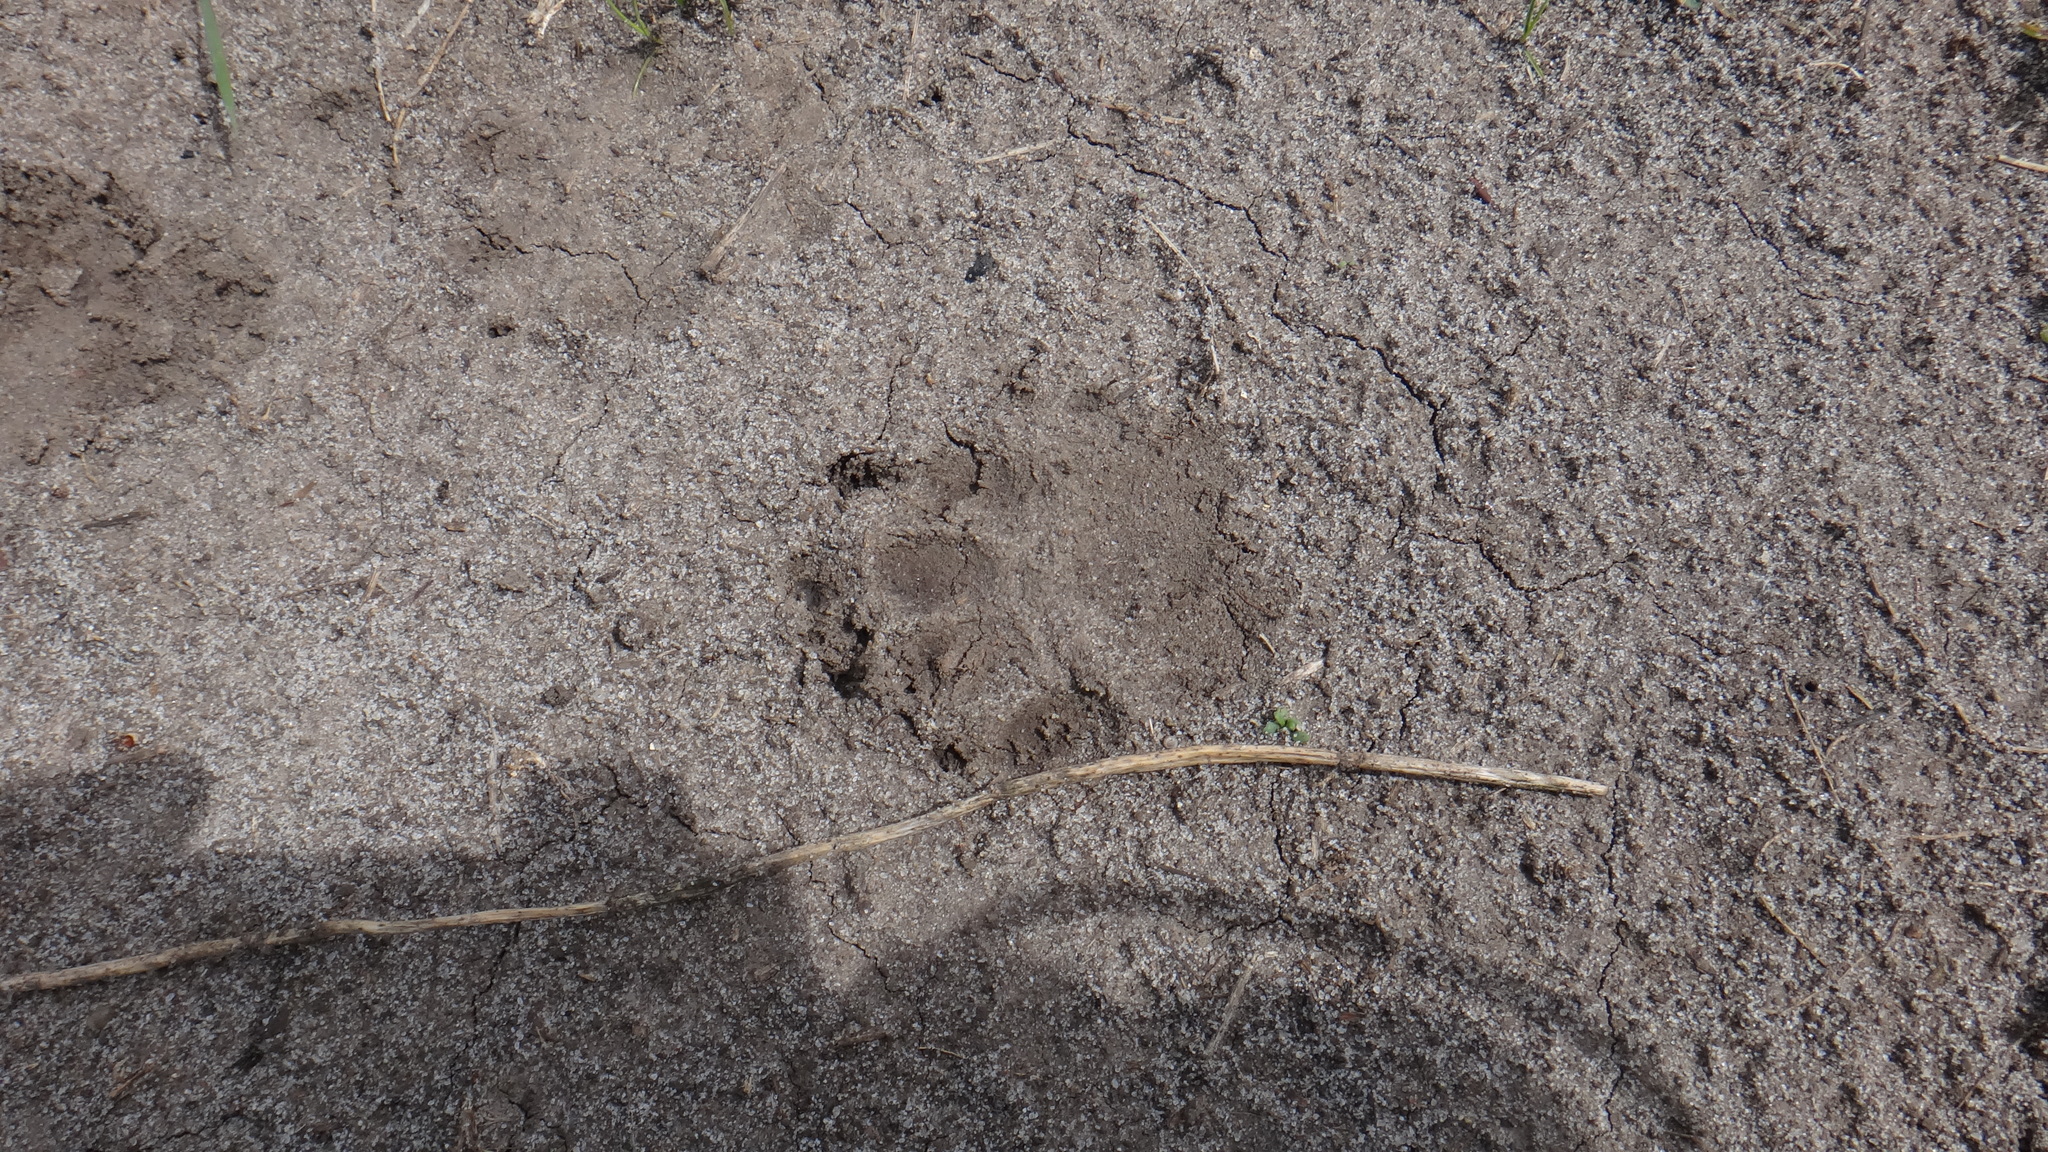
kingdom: Animalia
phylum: Chordata
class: Mammalia
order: Carnivora
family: Mustelidae
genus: Meles
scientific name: Meles meles
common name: Eurasian badger
